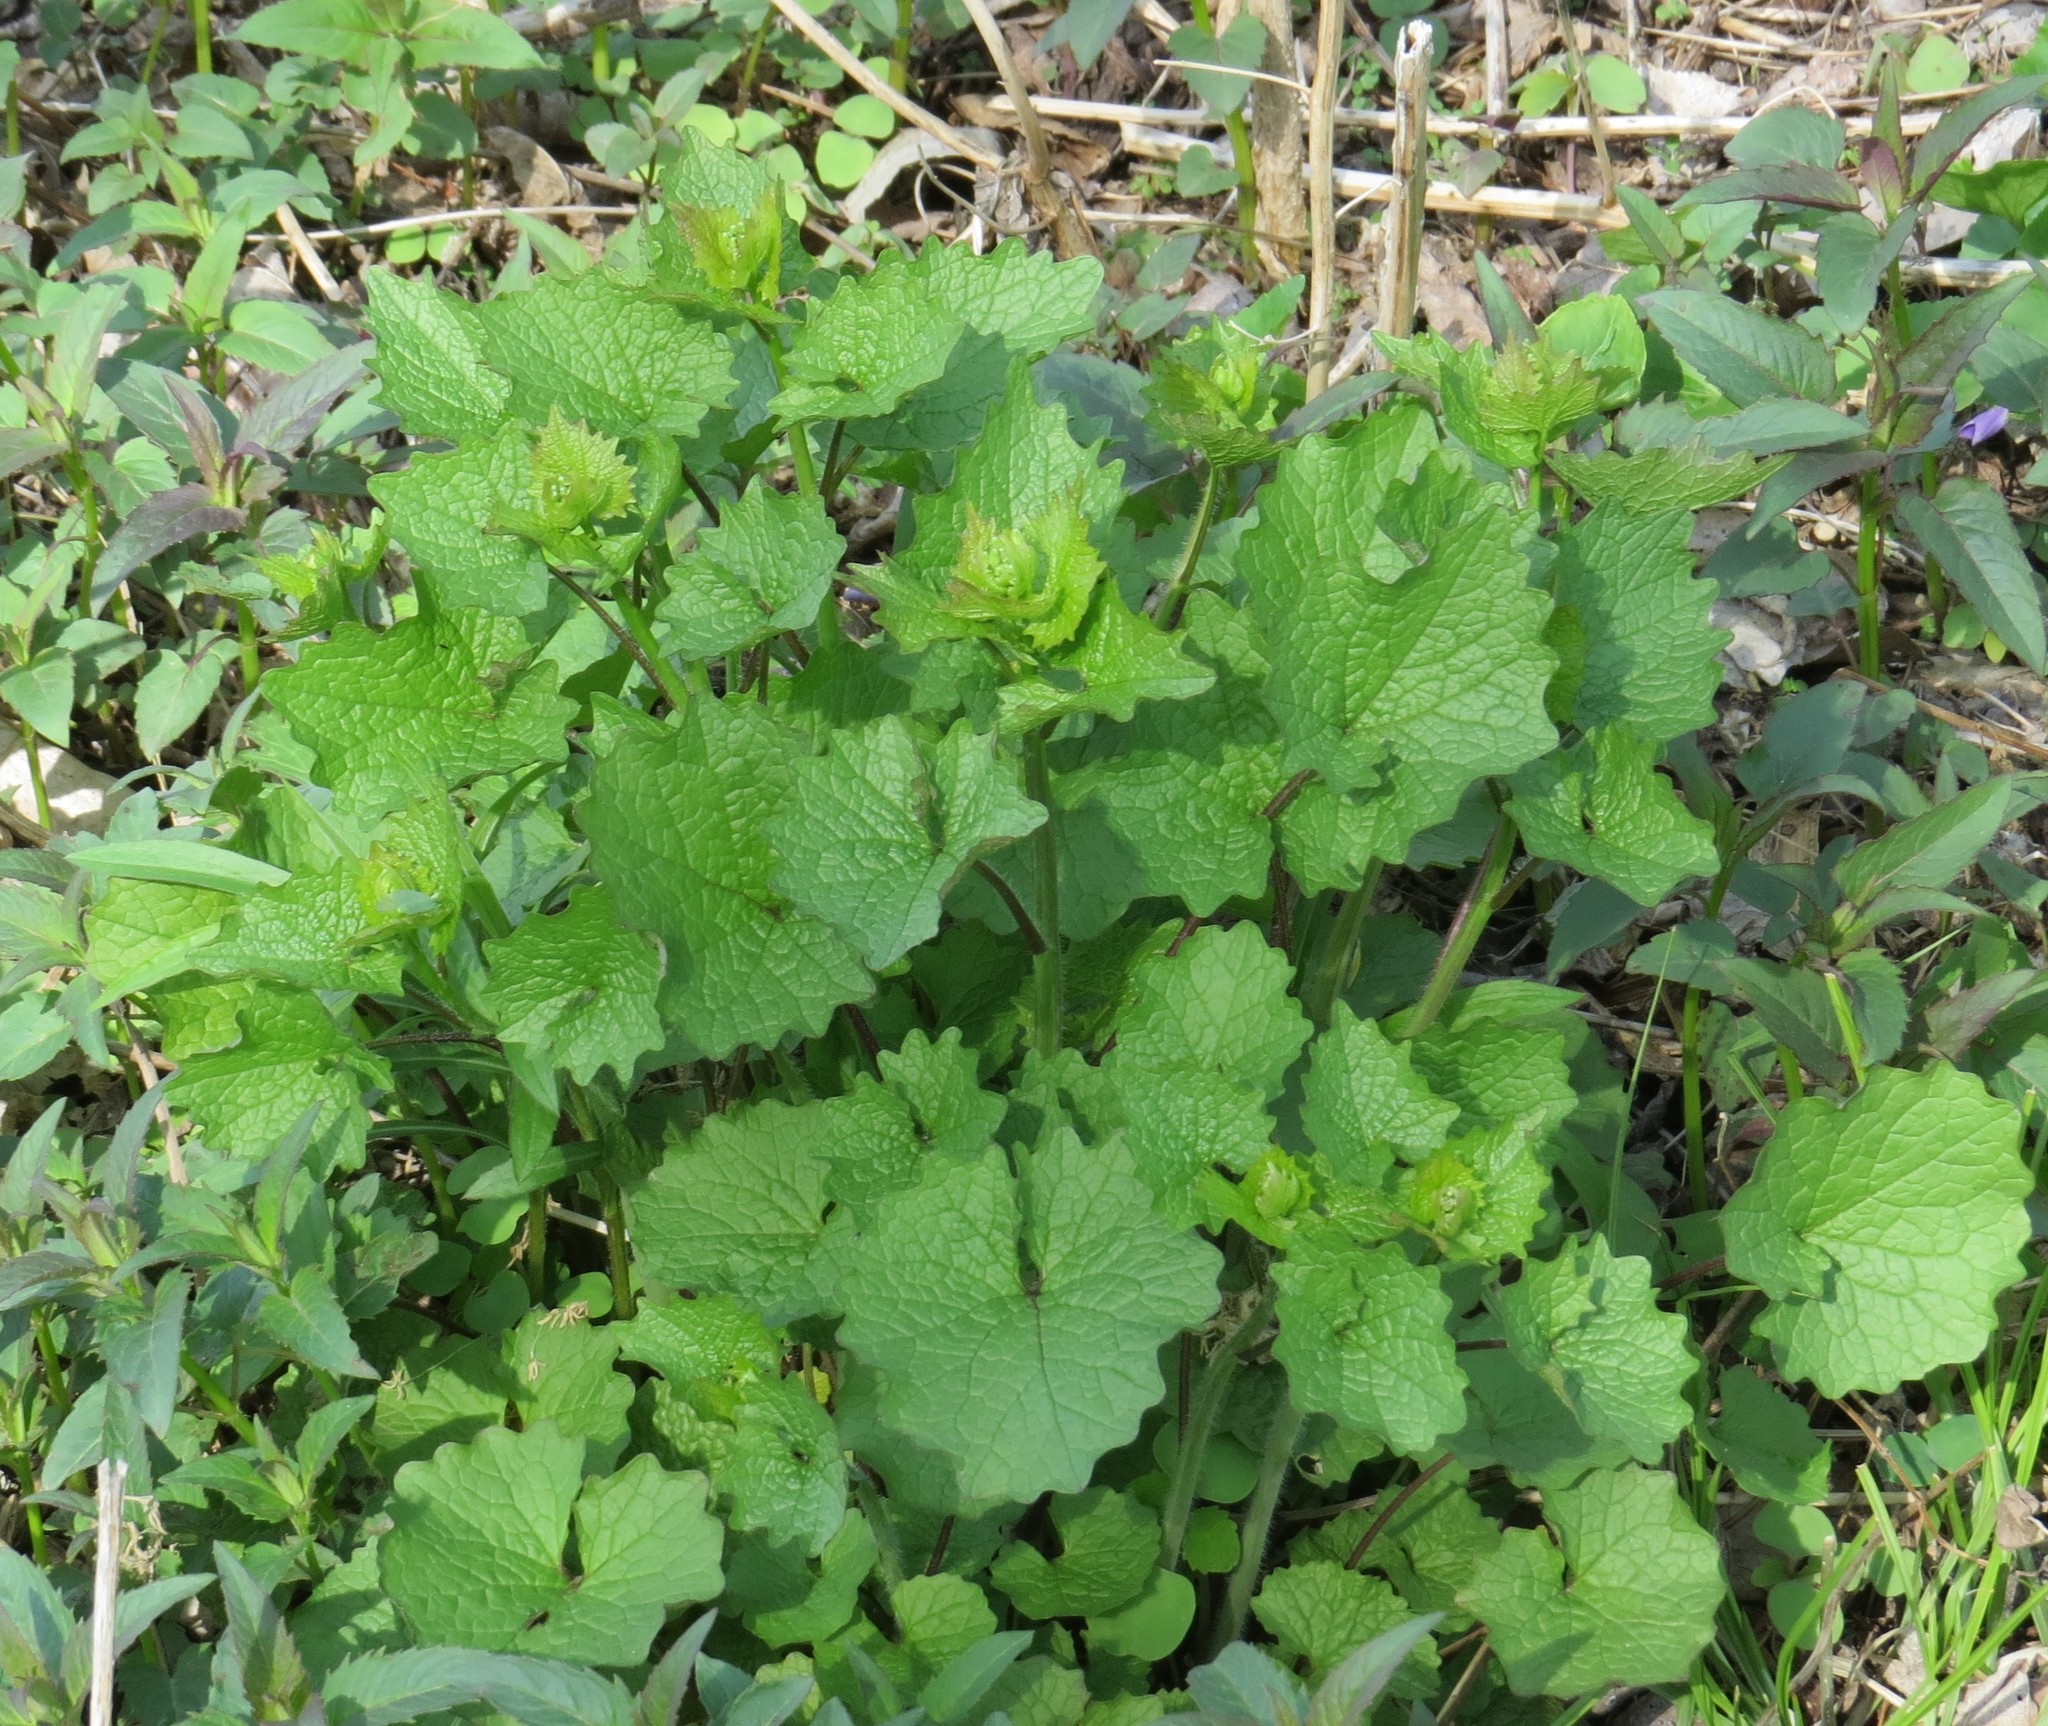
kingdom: Plantae
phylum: Tracheophyta
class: Magnoliopsida
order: Brassicales
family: Brassicaceae
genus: Alliaria
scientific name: Alliaria petiolata
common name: Garlic mustard
